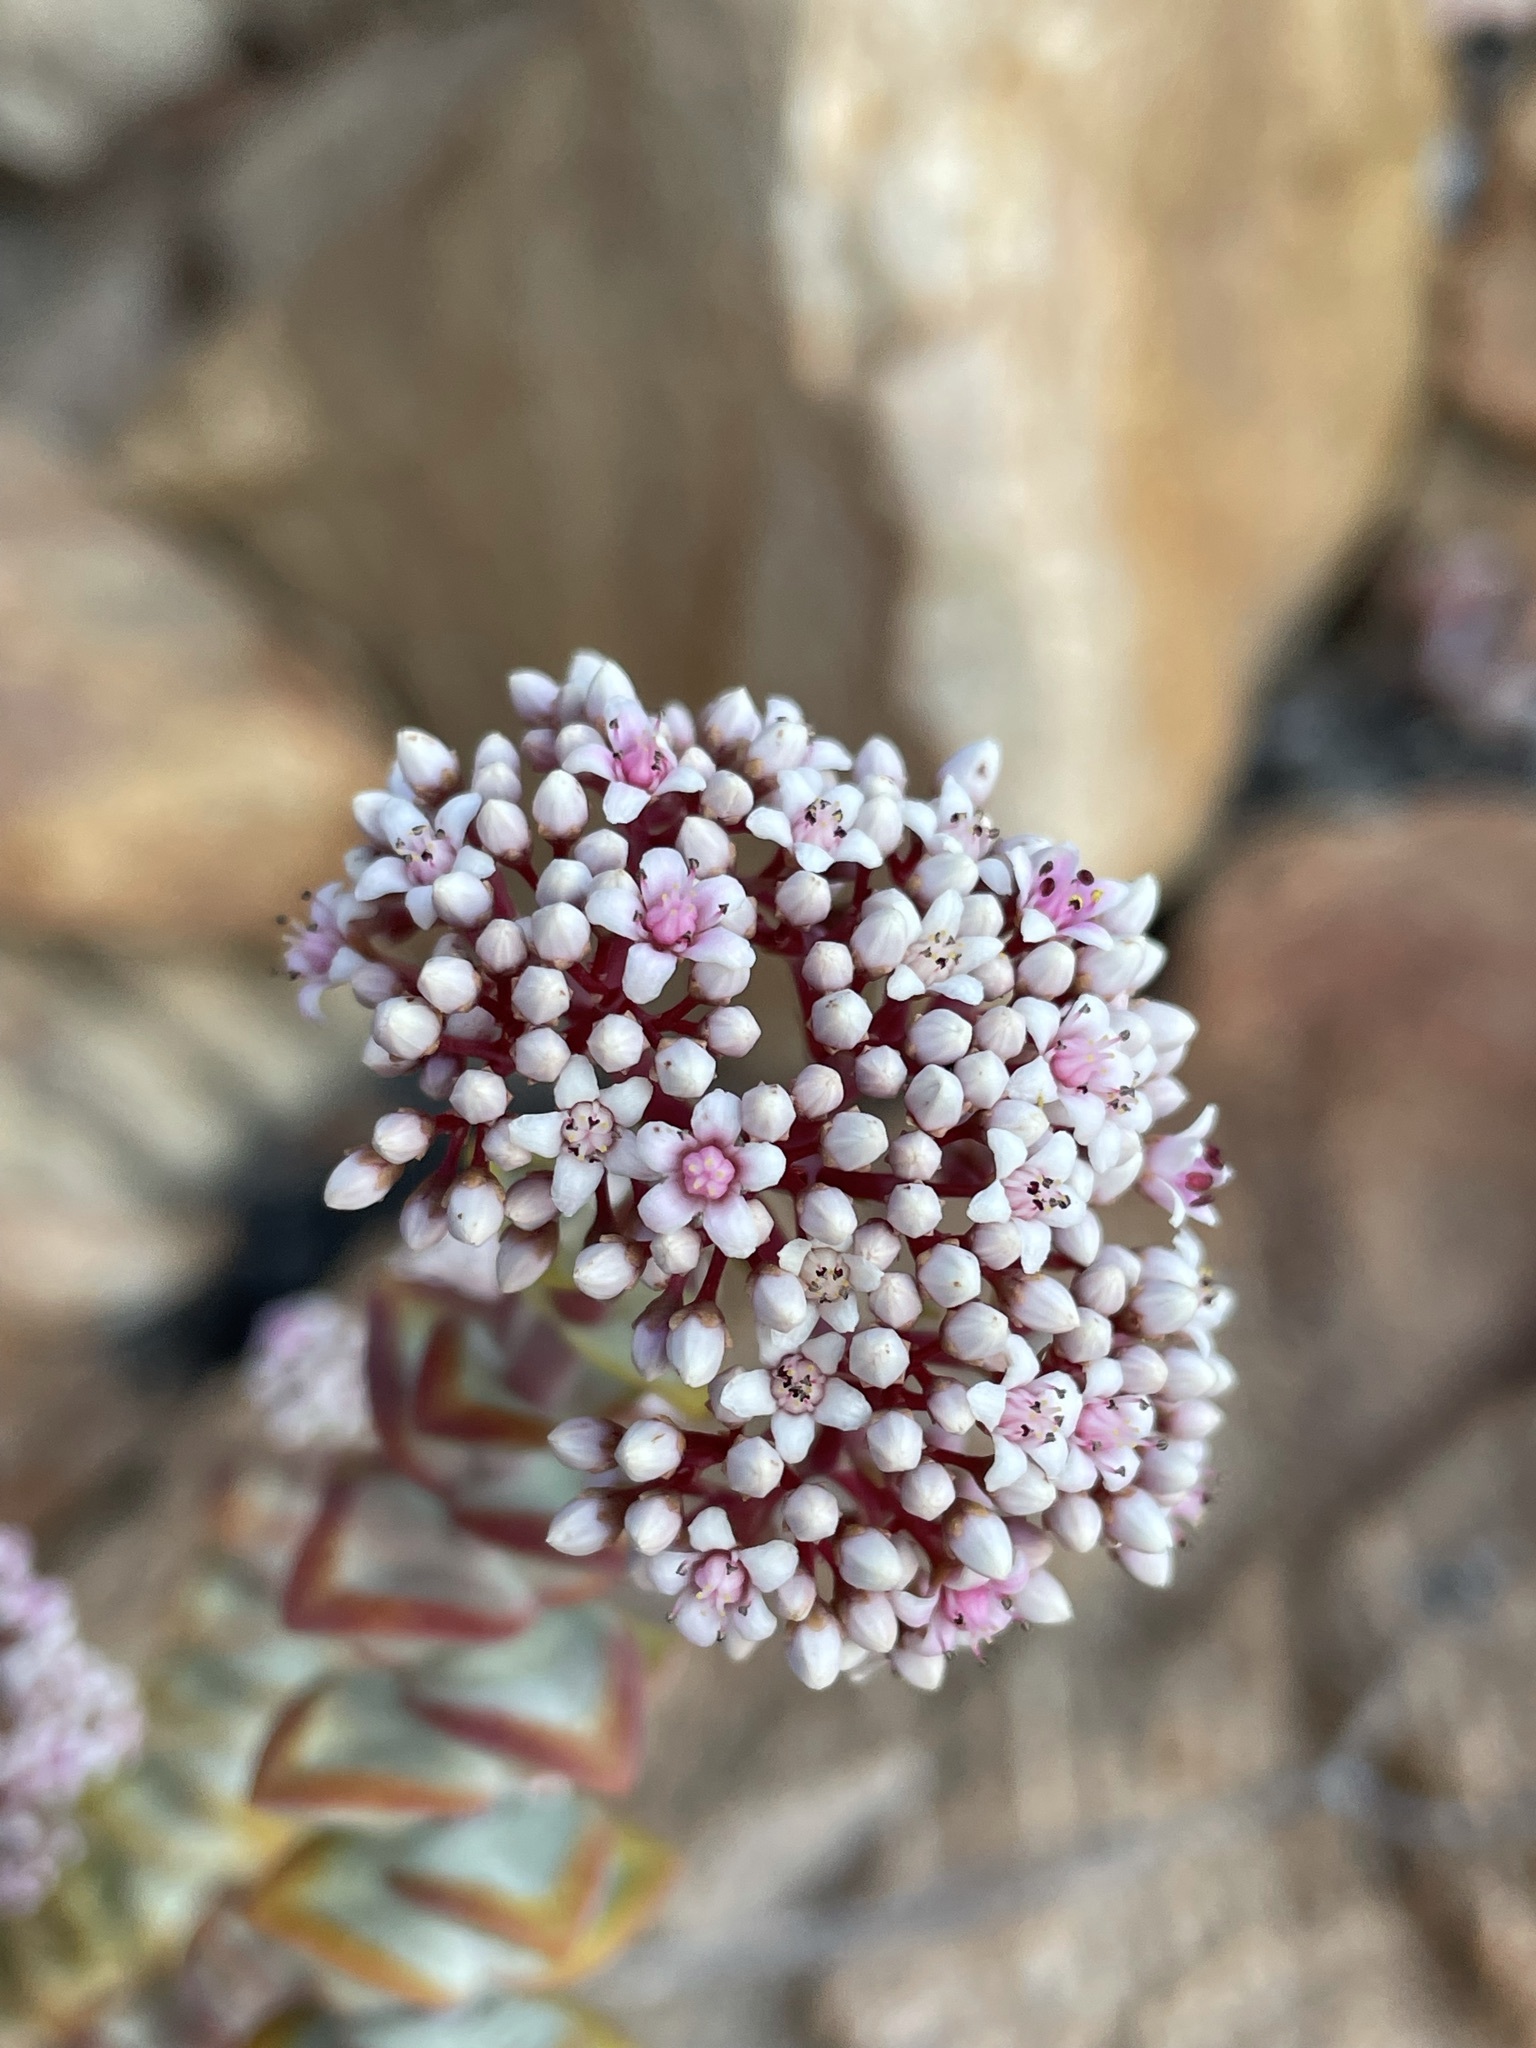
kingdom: Plantae
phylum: Tracheophyta
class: Magnoliopsida
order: Saxifragales
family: Crassulaceae
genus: Crassula
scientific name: Crassula rupestris
